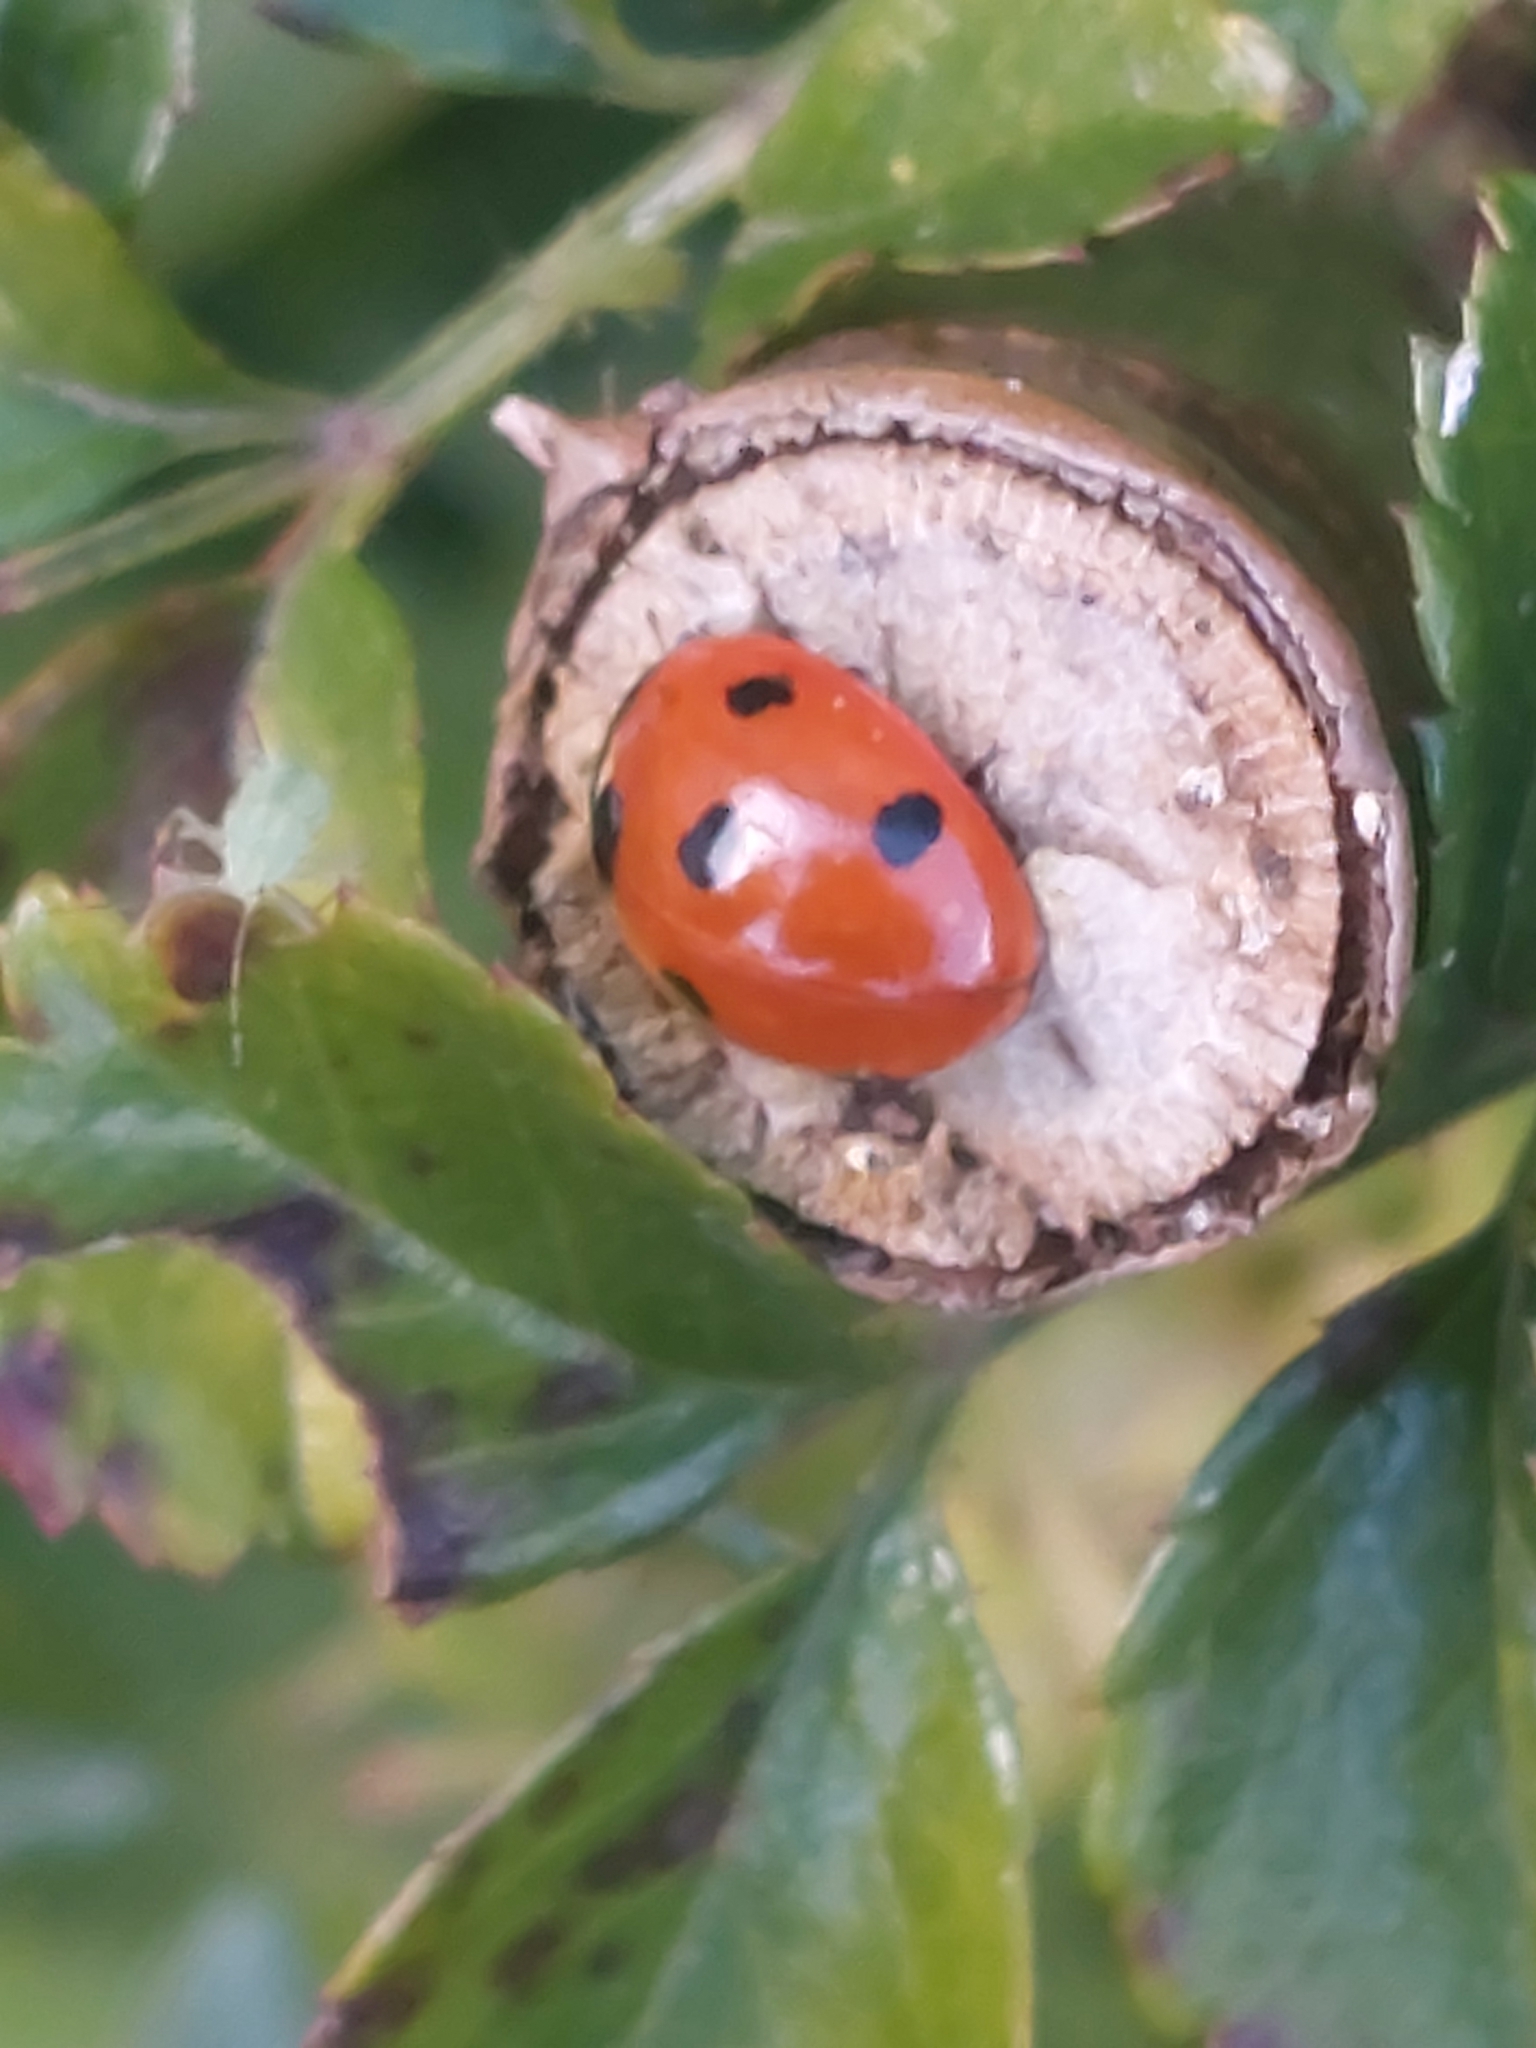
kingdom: Animalia
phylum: Arthropoda
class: Insecta
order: Coleoptera
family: Coccinellidae
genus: Coccinella
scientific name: Coccinella septempunctata
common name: Sevenspotted lady beetle
